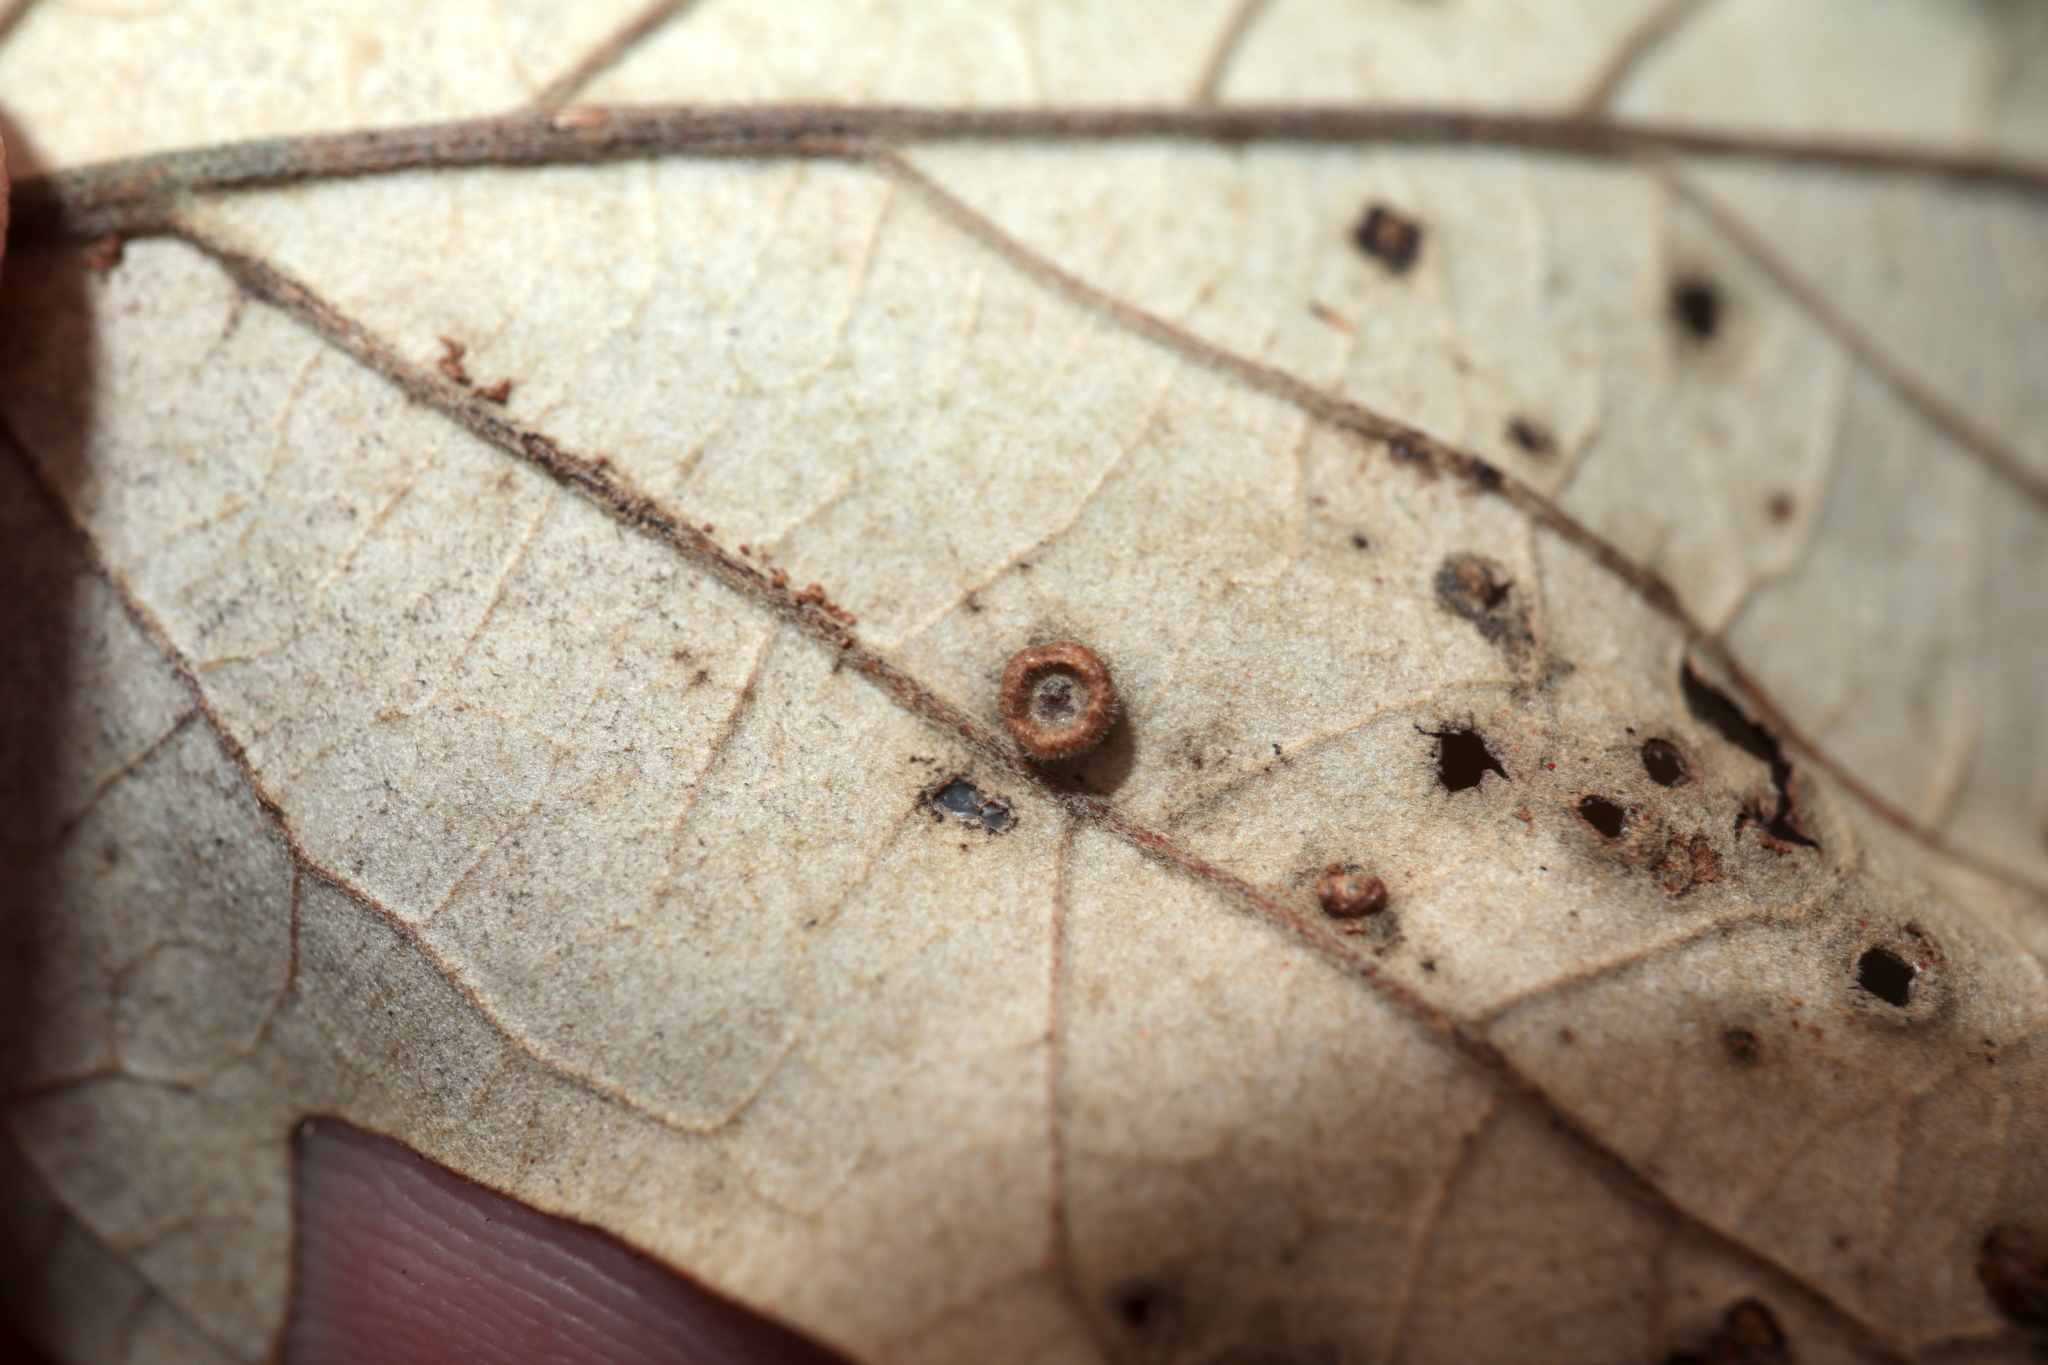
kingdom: Animalia
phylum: Arthropoda
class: Insecta
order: Hymenoptera
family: Cynipidae
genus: Neuroterus
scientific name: Neuroterus
